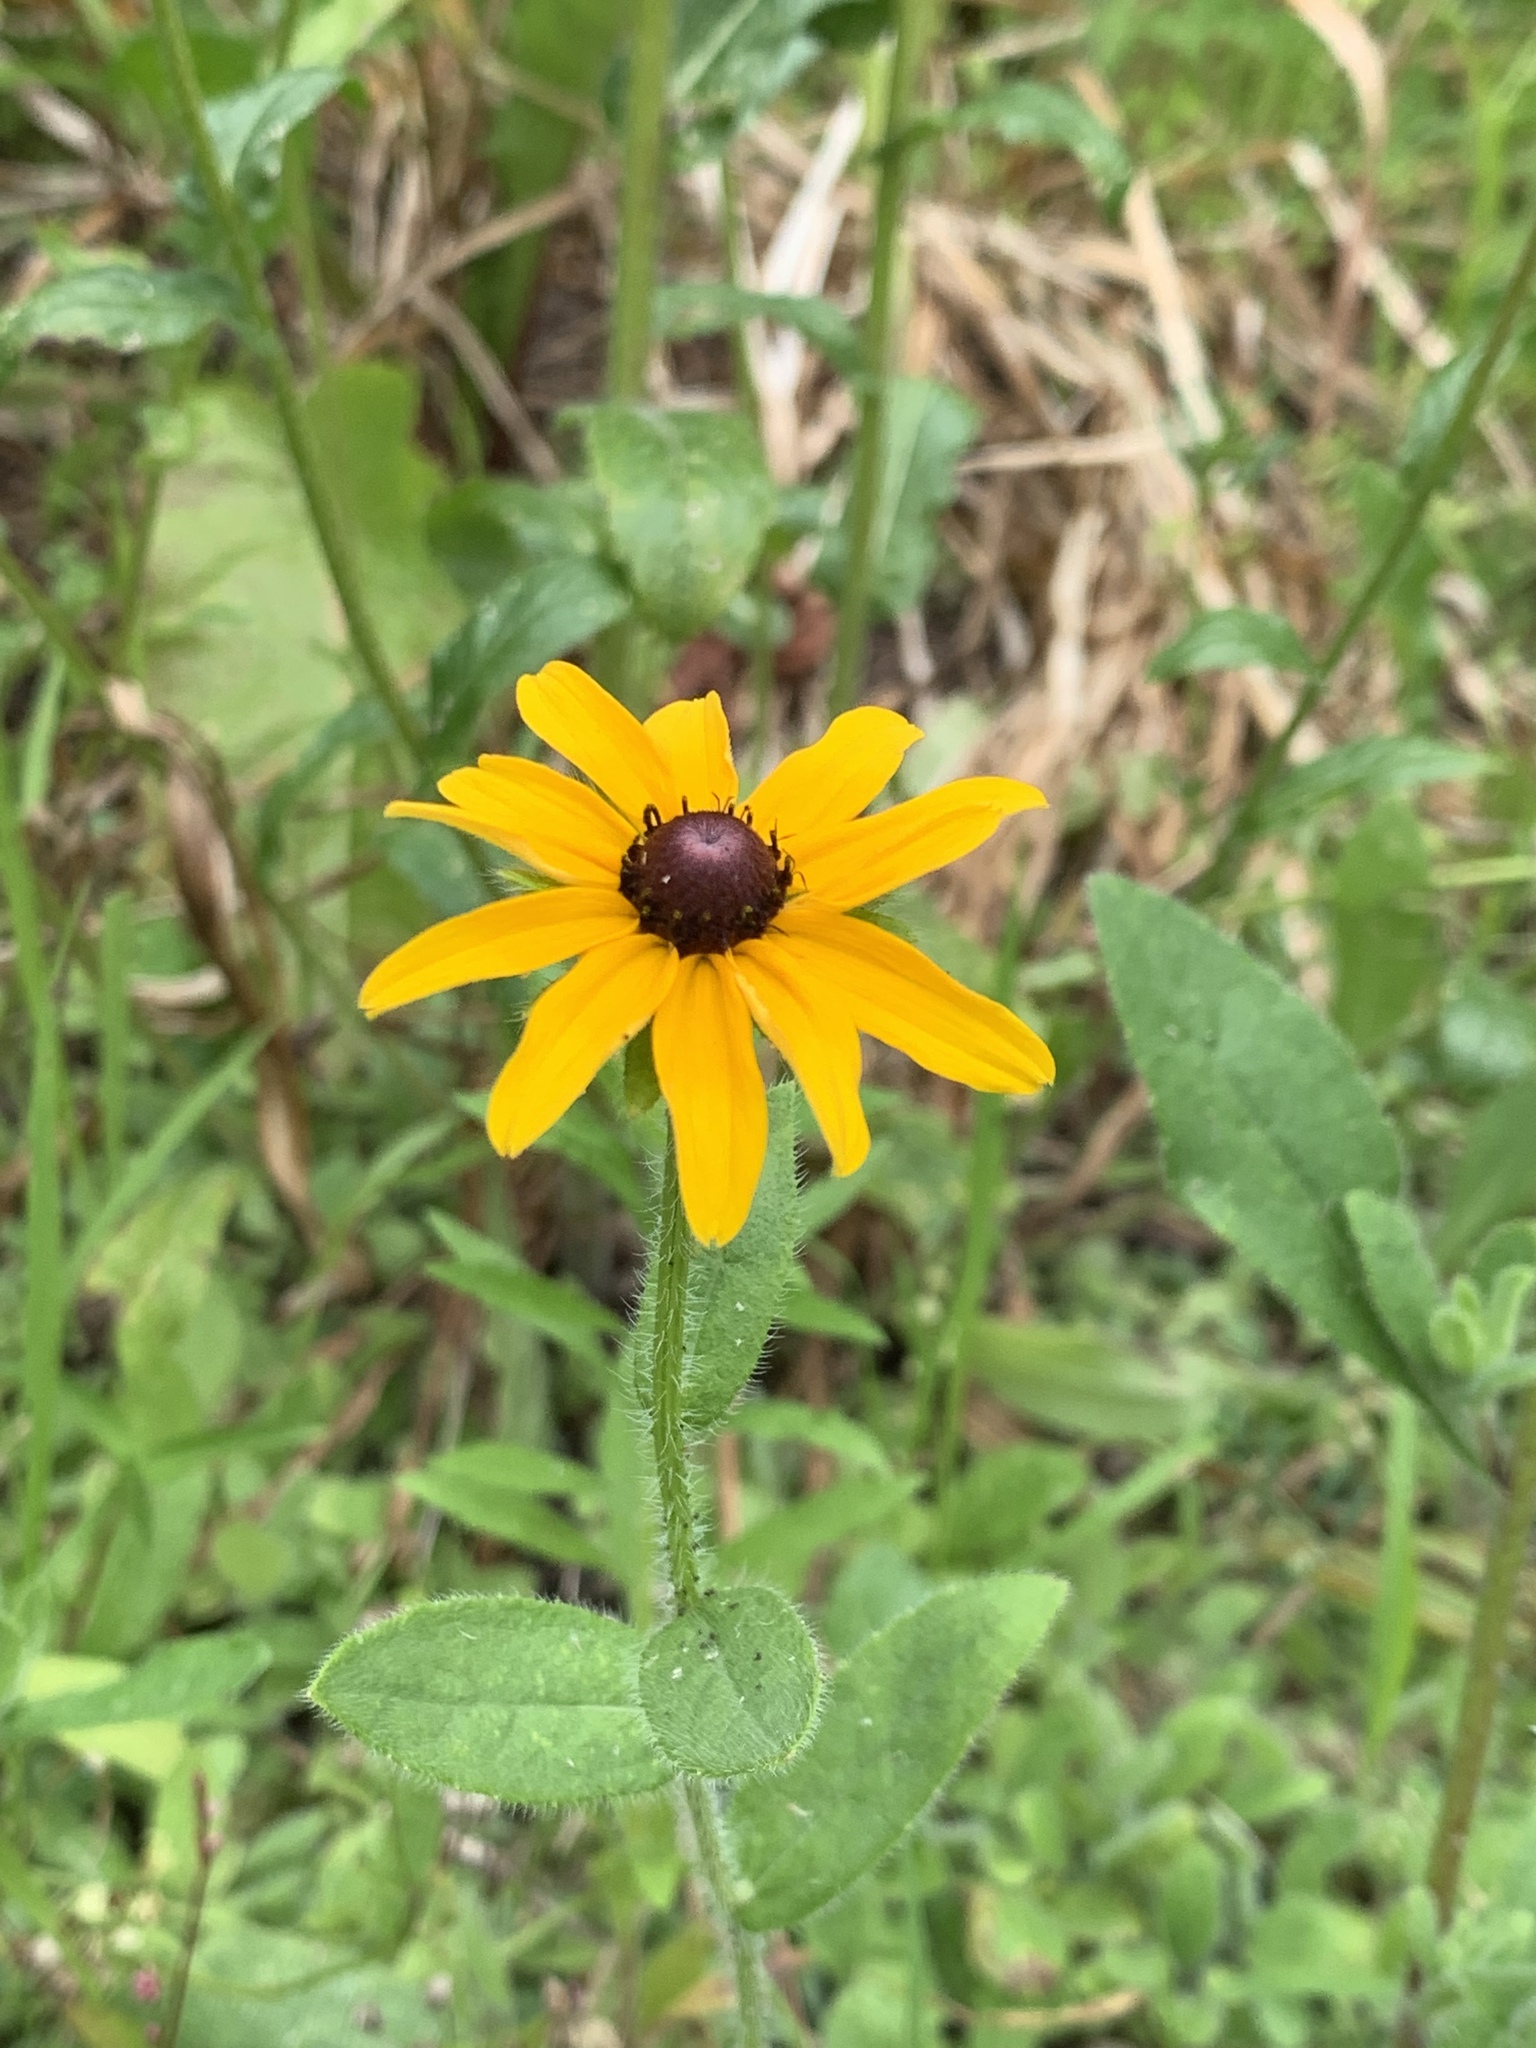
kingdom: Plantae
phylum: Tracheophyta
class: Magnoliopsida
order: Asterales
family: Asteraceae
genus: Rudbeckia
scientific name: Rudbeckia hirta
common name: Black-eyed-susan
